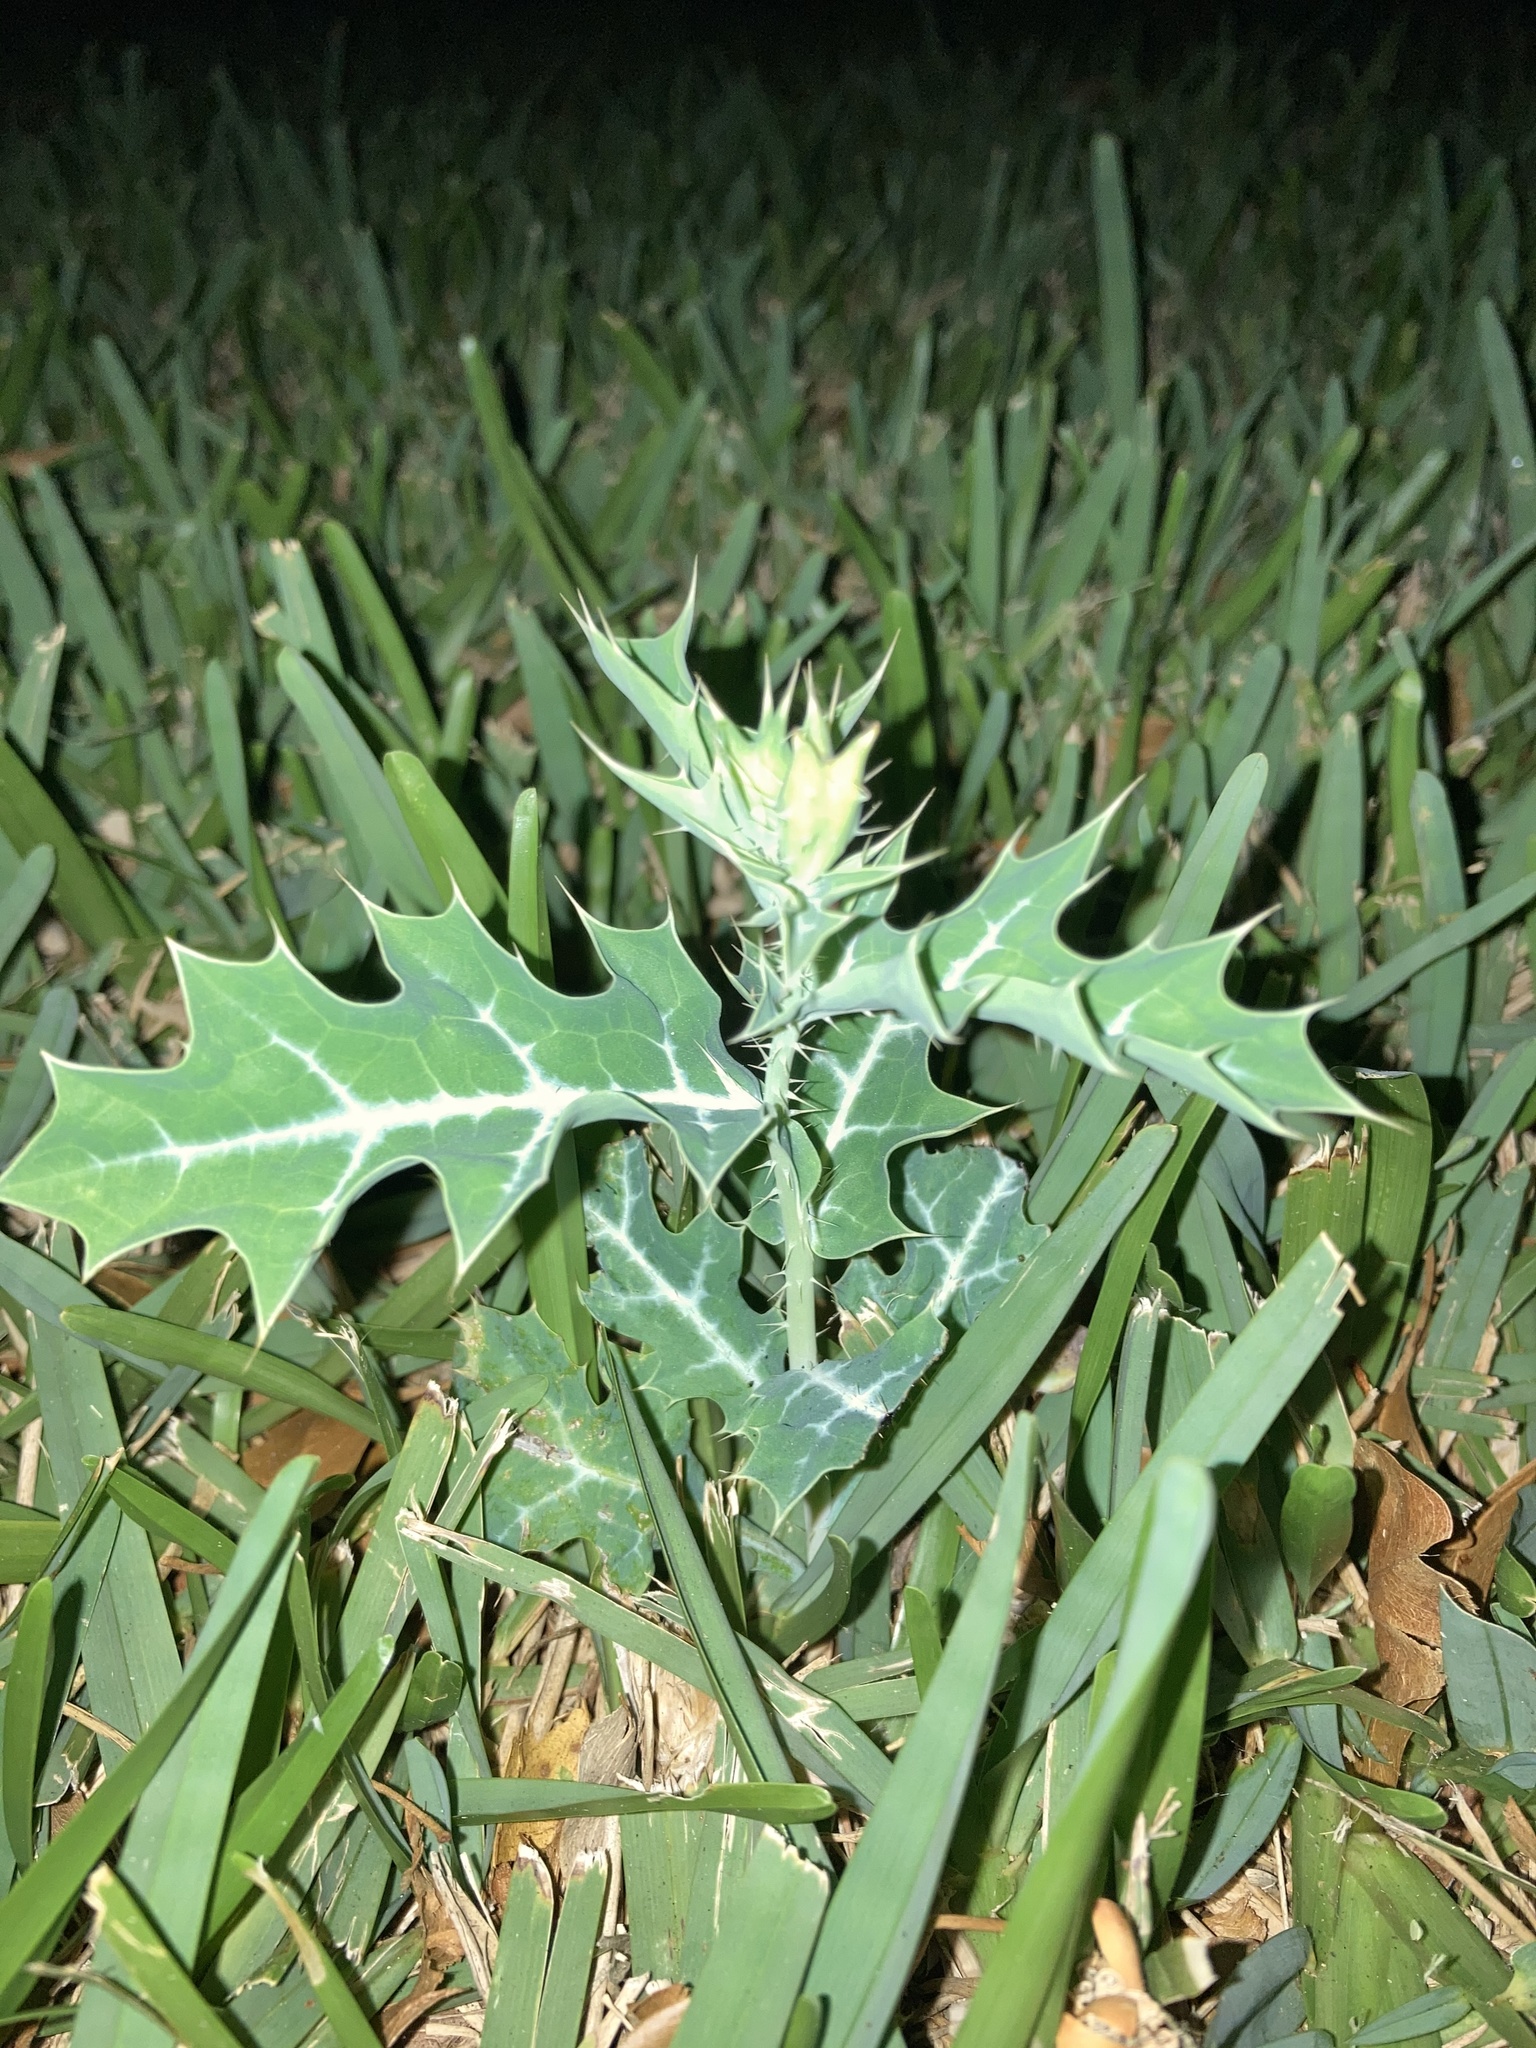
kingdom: Plantae
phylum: Tracheophyta
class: Magnoliopsida
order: Ranunculales
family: Papaveraceae
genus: Argemone
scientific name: Argemone mexicana
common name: Mexican poppy
